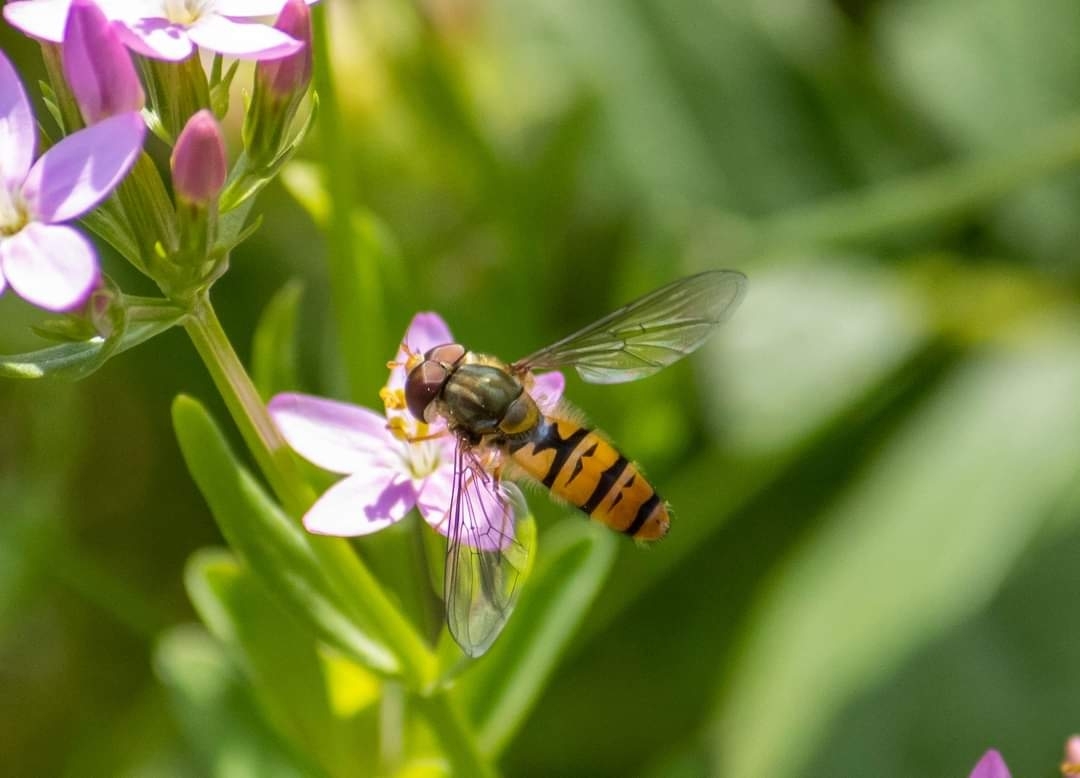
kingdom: Animalia
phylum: Arthropoda
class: Insecta
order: Diptera
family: Syrphidae
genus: Episyrphus
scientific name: Episyrphus balteatus
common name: Marmalade hoverfly
